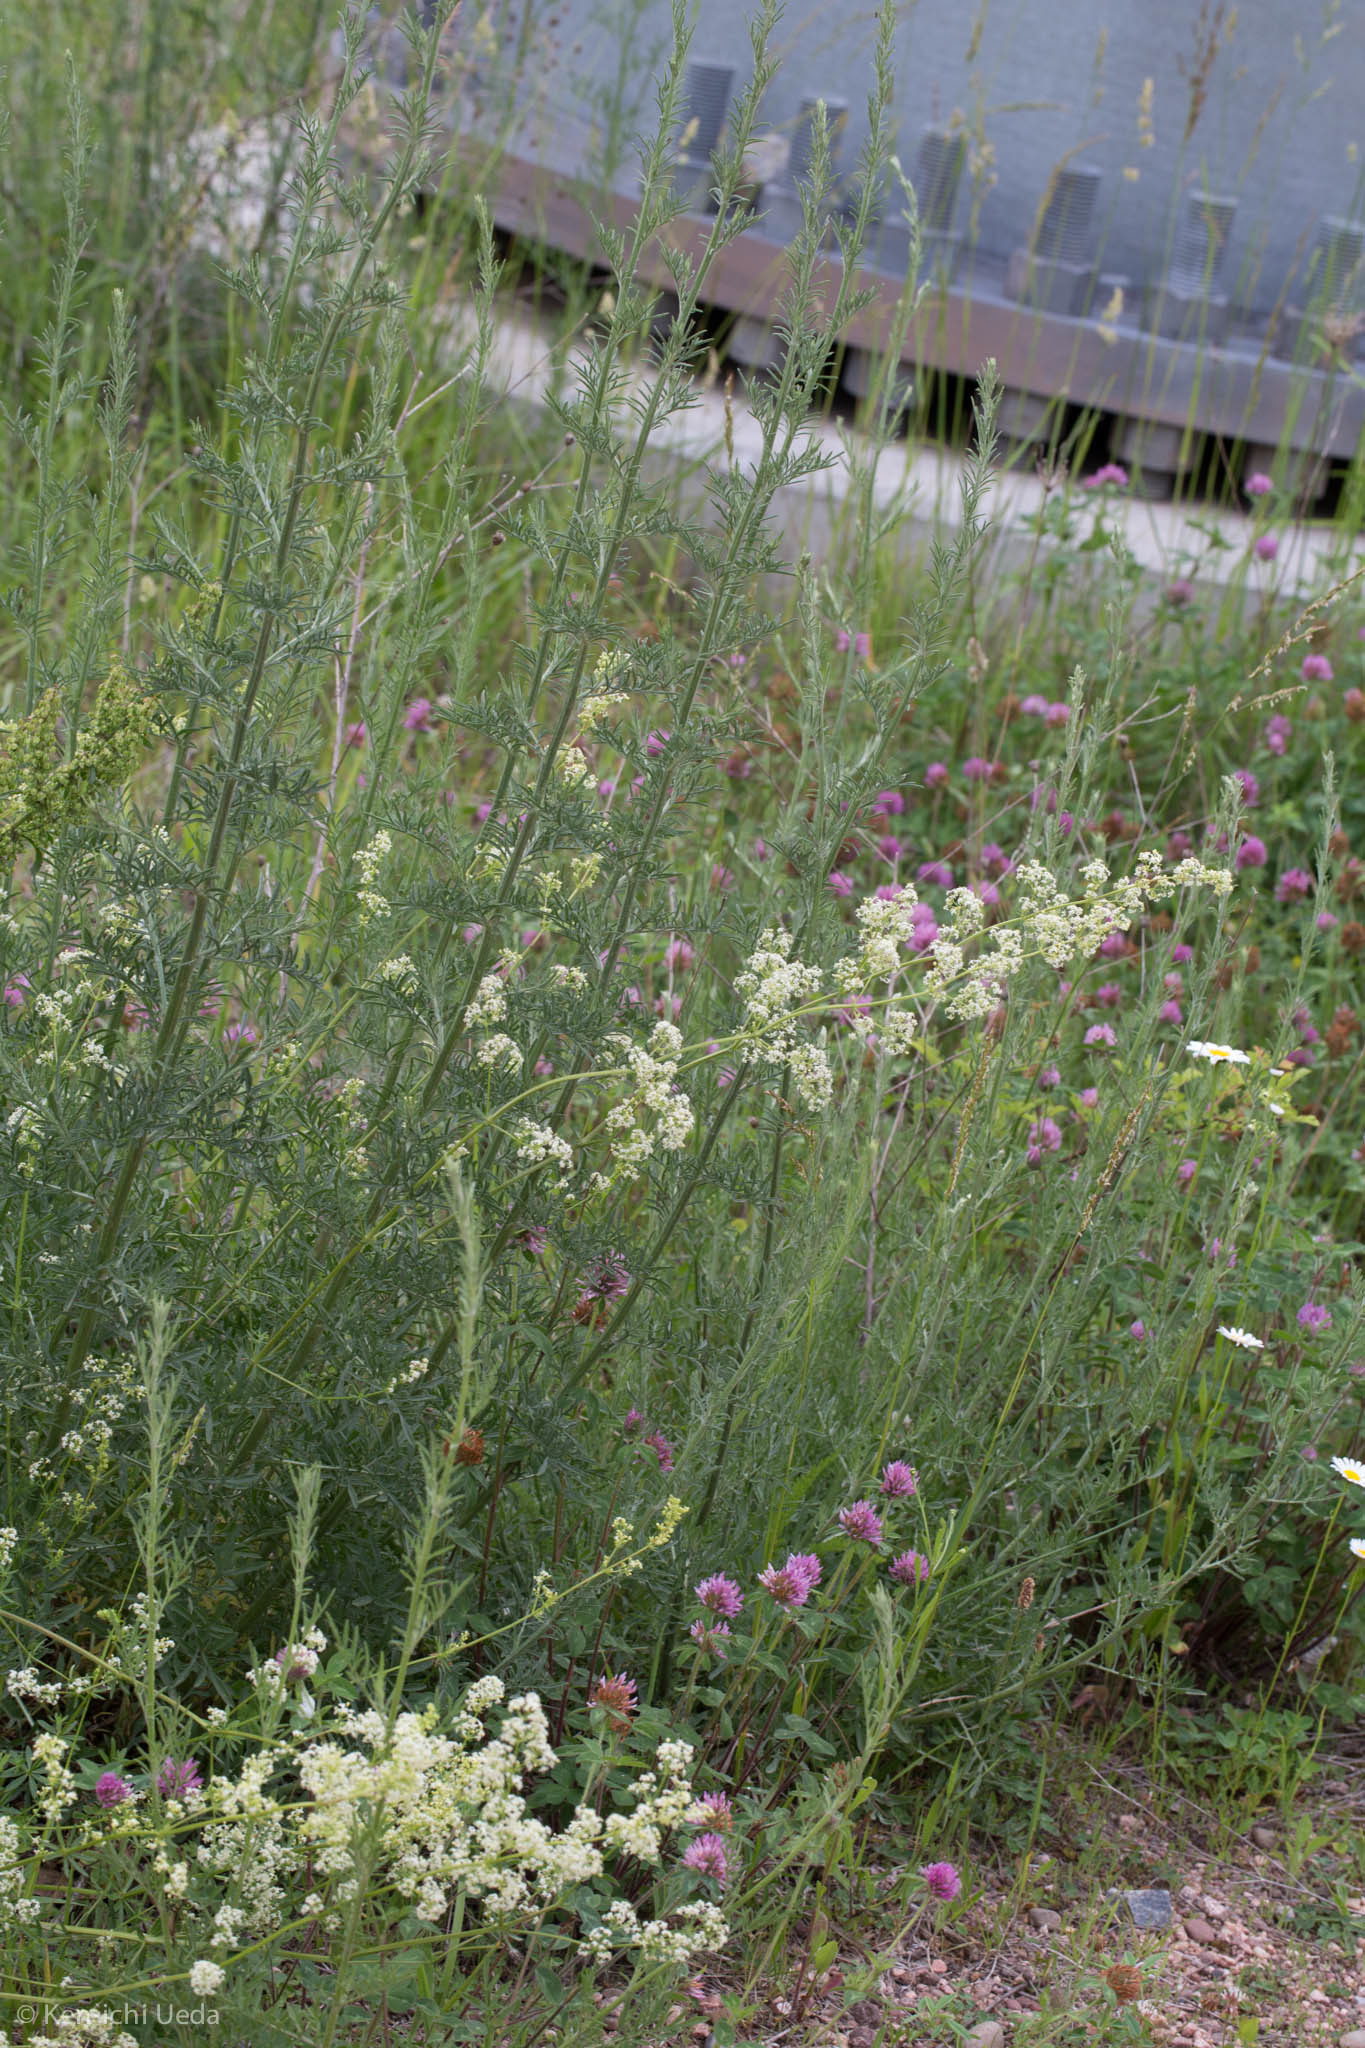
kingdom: Plantae
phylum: Tracheophyta
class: Magnoliopsida
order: Gentianales
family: Rubiaceae
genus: Galium
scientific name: Galium mollugo
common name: Hedge bedstraw
